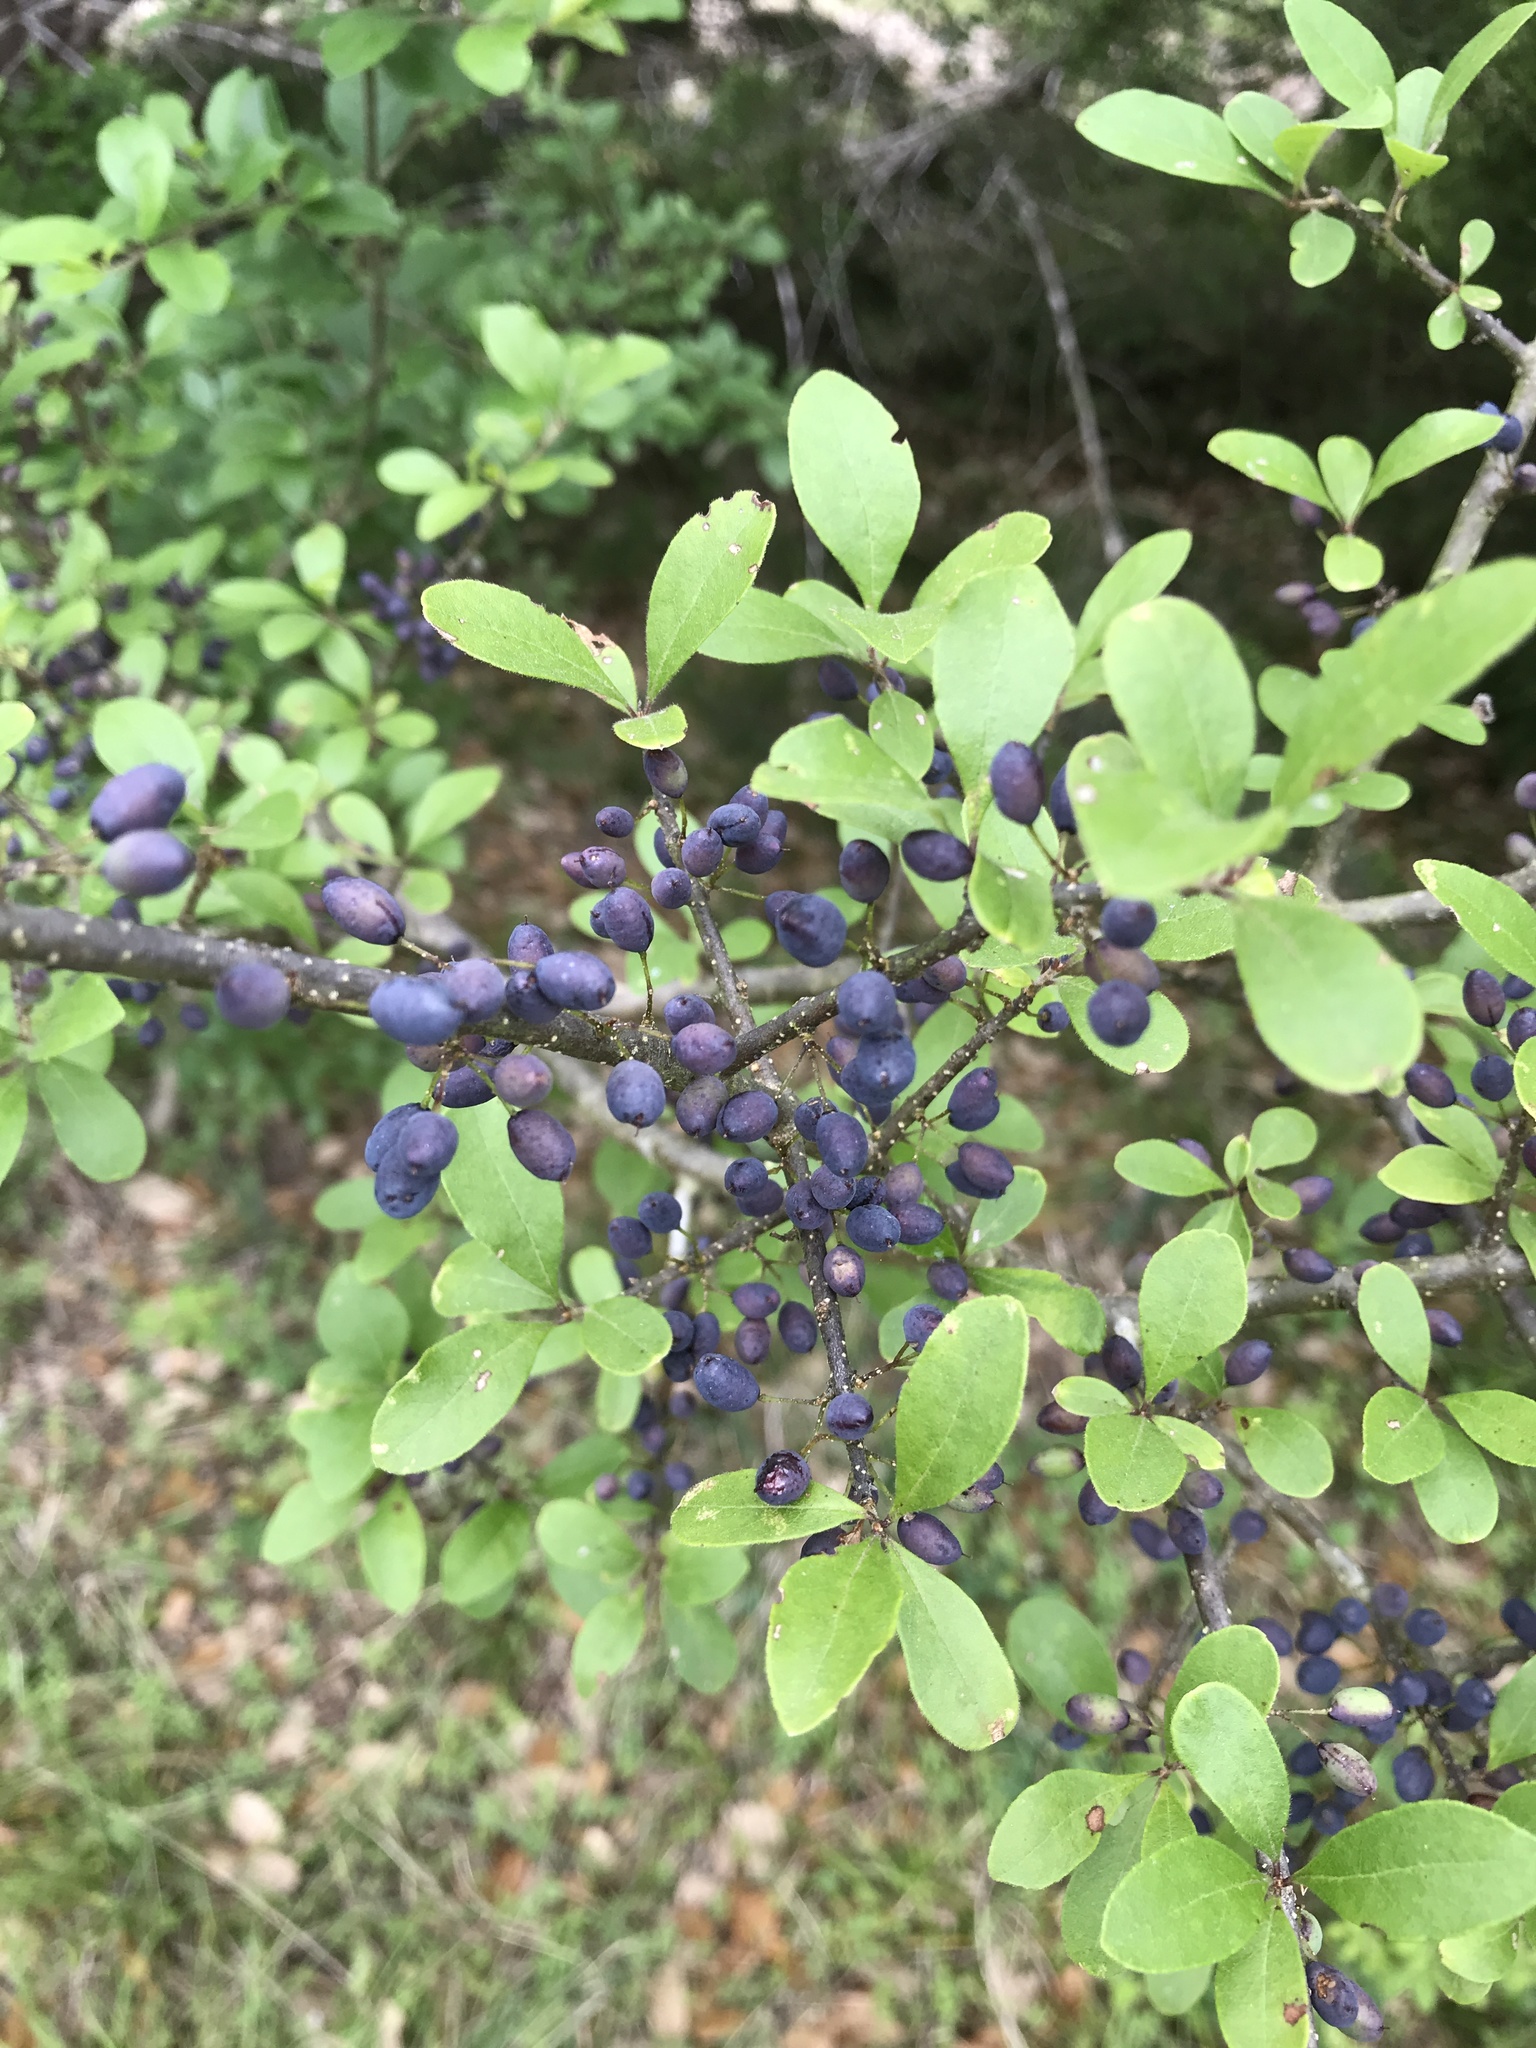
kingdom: Plantae
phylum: Tracheophyta
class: Magnoliopsida
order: Lamiales
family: Oleaceae
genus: Forestiera
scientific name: Forestiera pubescens
